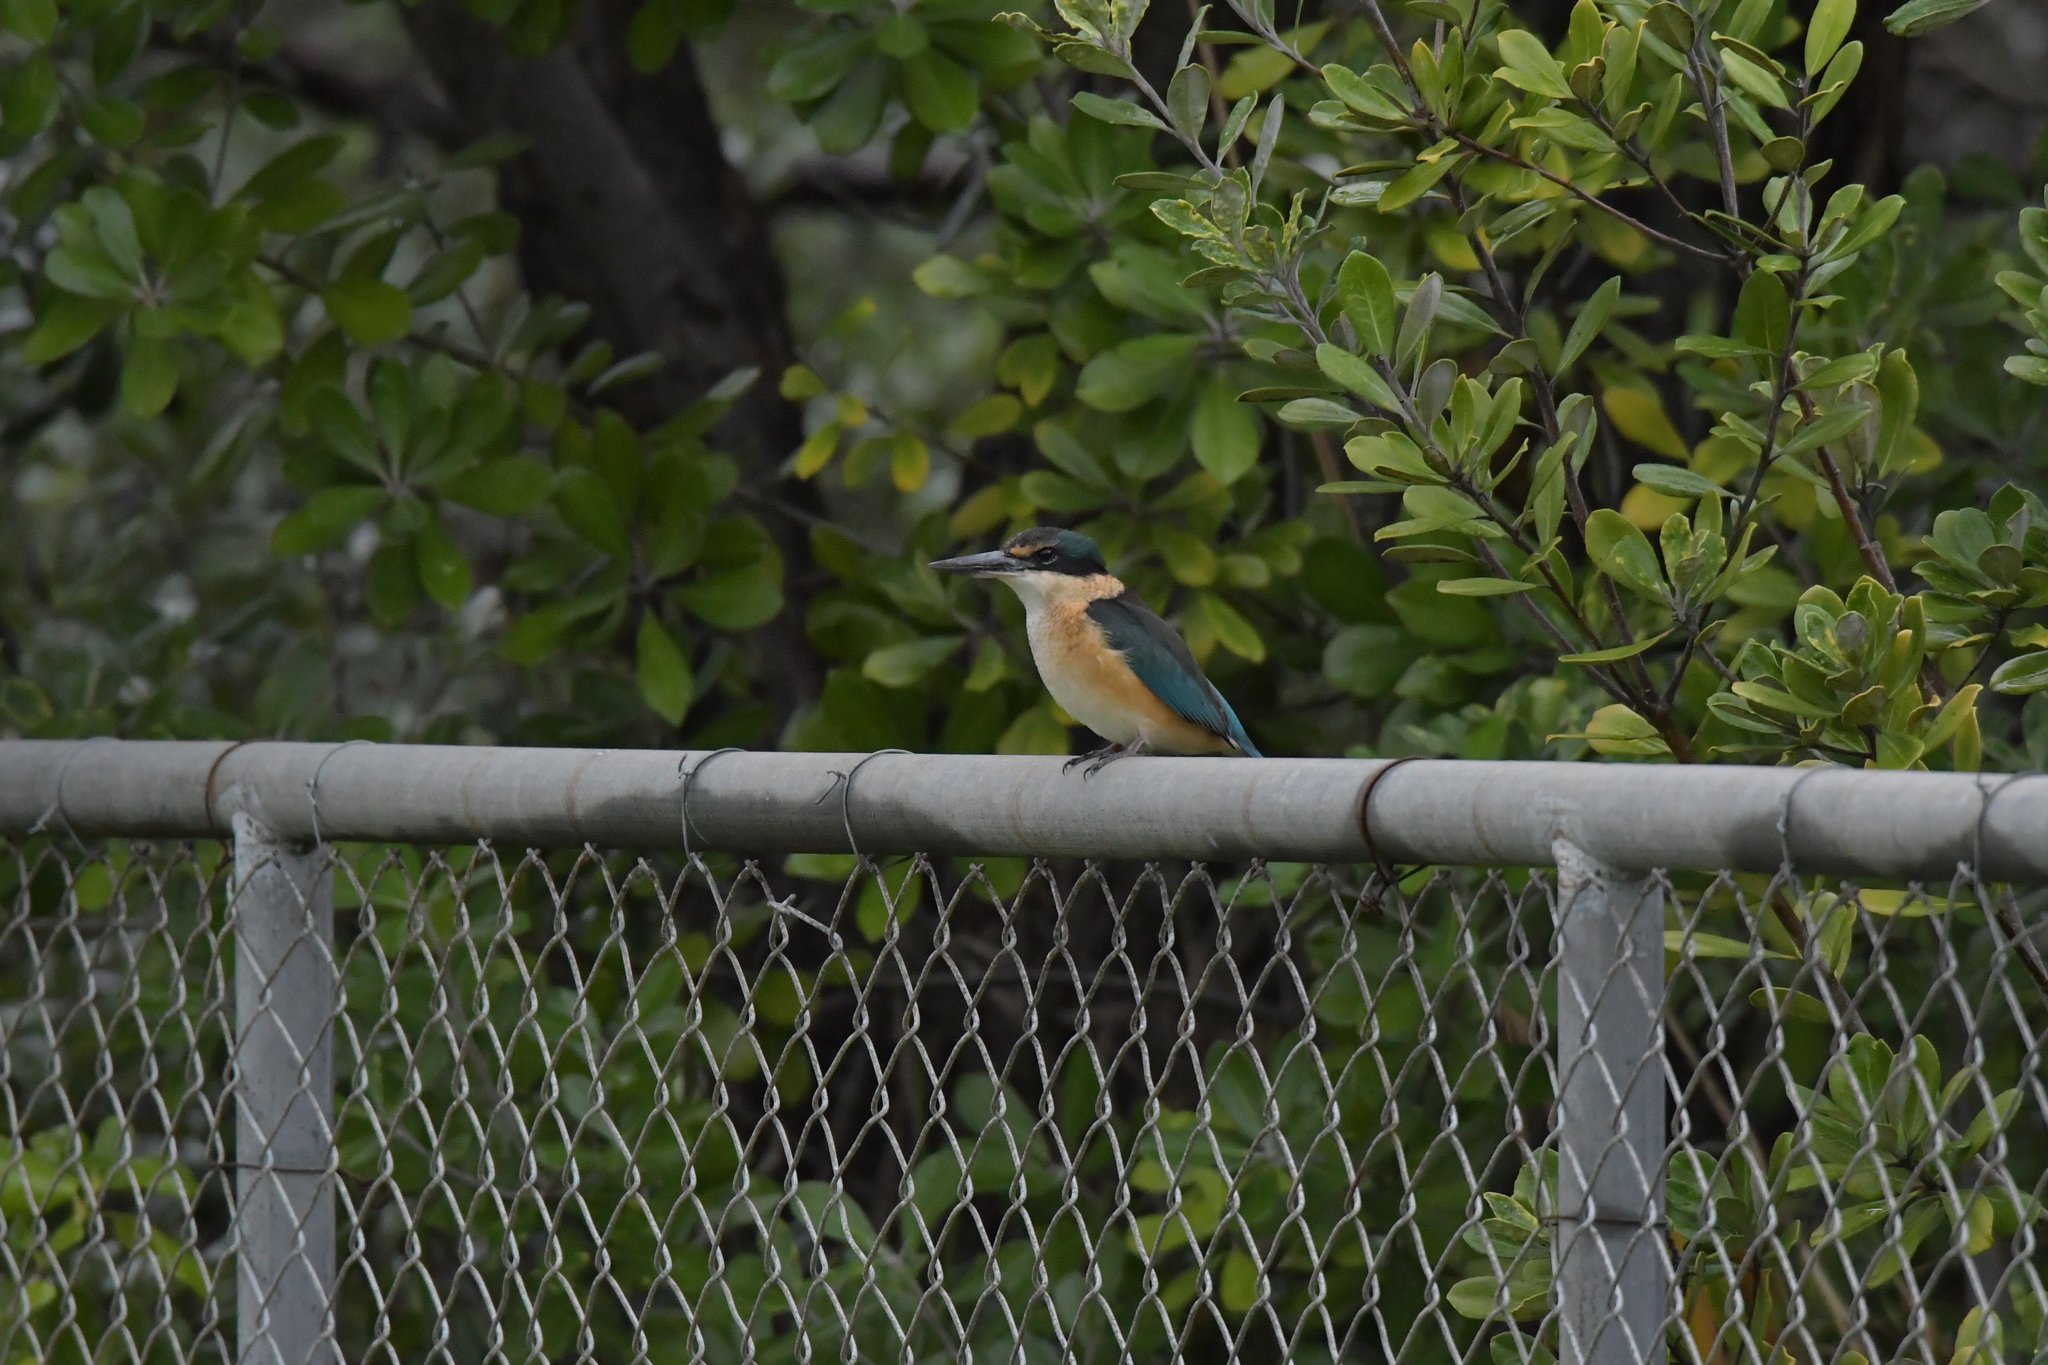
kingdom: Animalia
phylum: Chordata
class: Aves
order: Coraciiformes
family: Alcedinidae
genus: Todiramphus
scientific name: Todiramphus sanctus
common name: Sacred kingfisher
